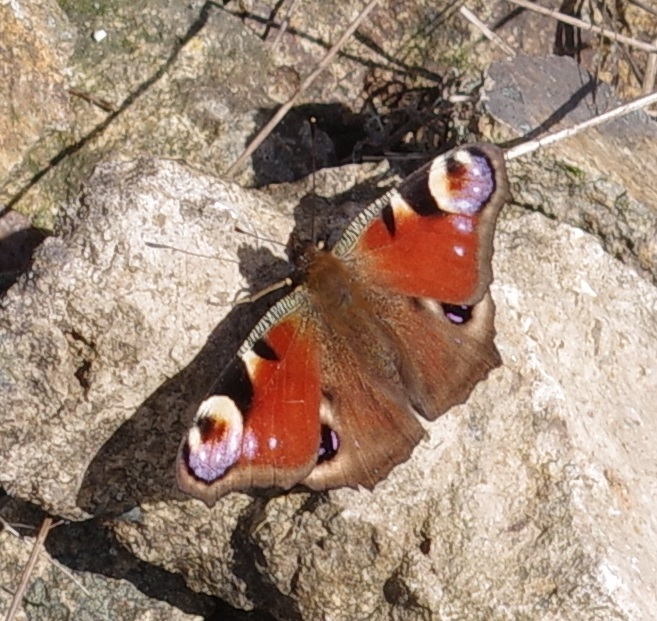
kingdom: Animalia
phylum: Arthropoda
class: Insecta
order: Lepidoptera
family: Nymphalidae
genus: Aglais
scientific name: Aglais io
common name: Peacock
